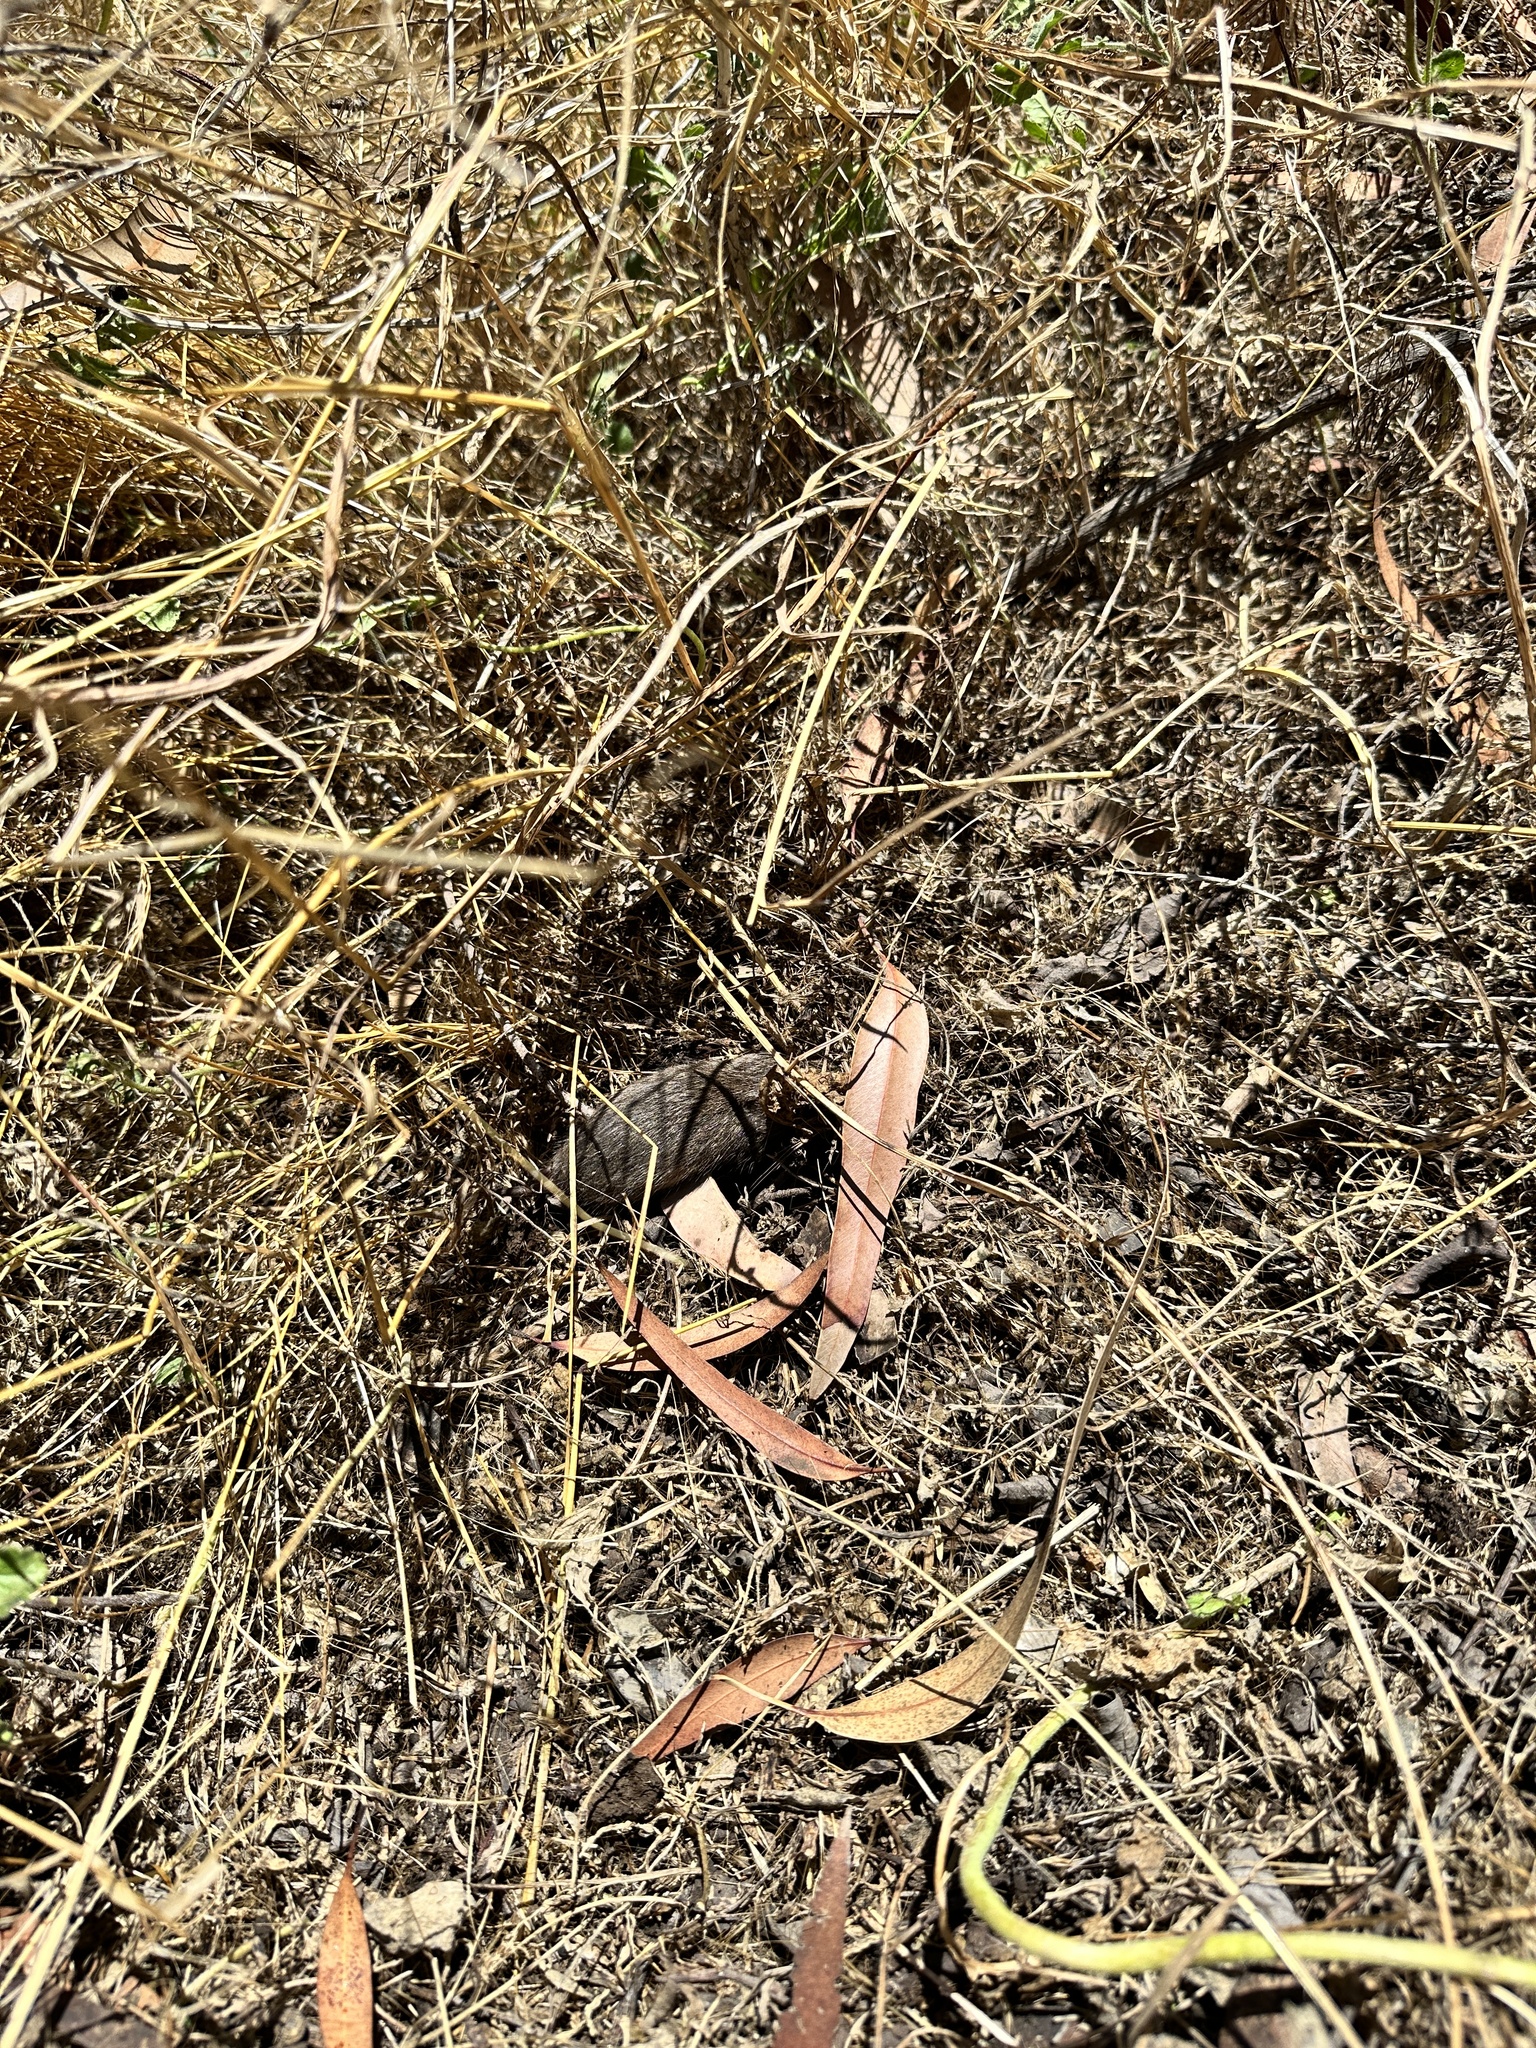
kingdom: Animalia
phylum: Chordata
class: Mammalia
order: Rodentia
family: Cricetidae
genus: Microtus
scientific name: Microtus californicus
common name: California vole
